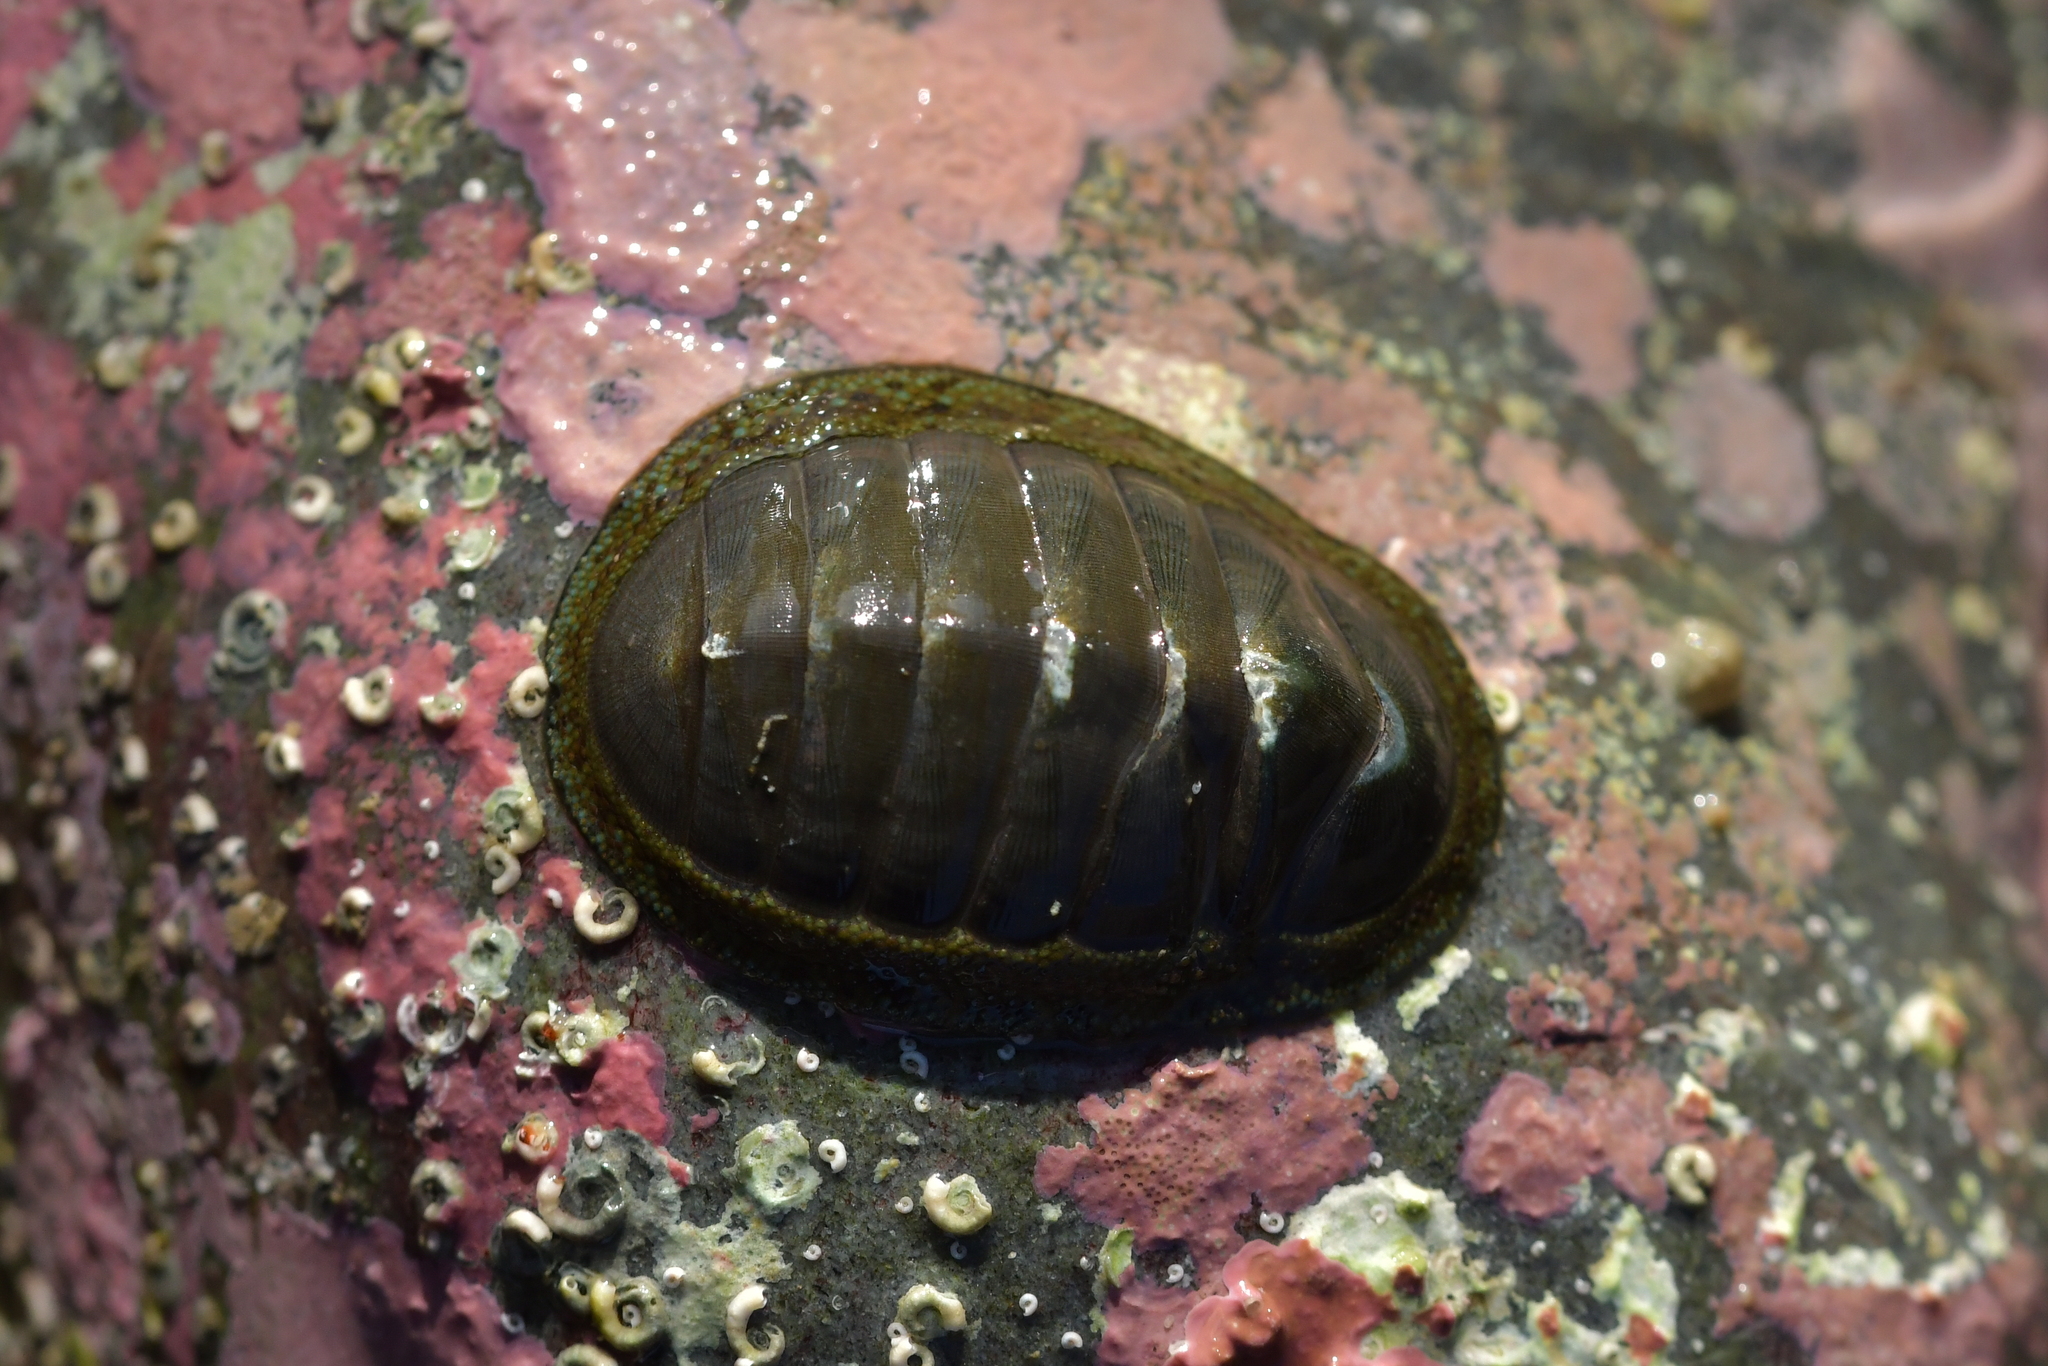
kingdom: Animalia
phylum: Mollusca
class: Polyplacophora
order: Chitonida
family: Chitonidae
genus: Chiton
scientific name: Chiton glaucus
